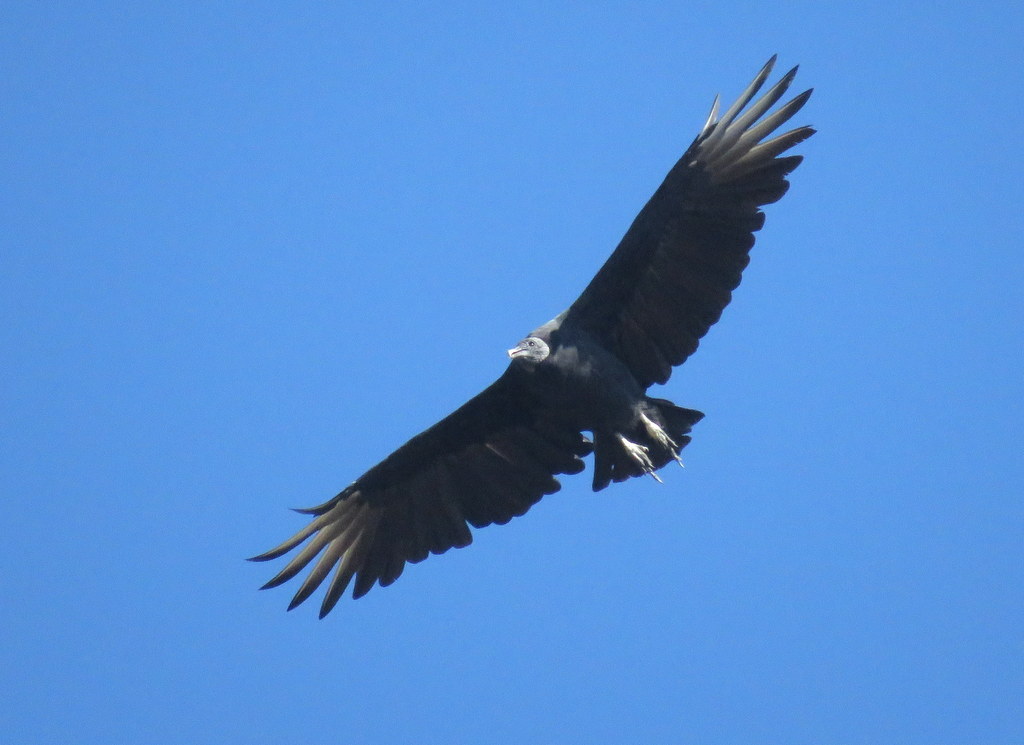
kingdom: Animalia
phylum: Chordata
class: Aves
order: Accipitriformes
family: Cathartidae
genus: Coragyps
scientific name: Coragyps atratus
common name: Black vulture
